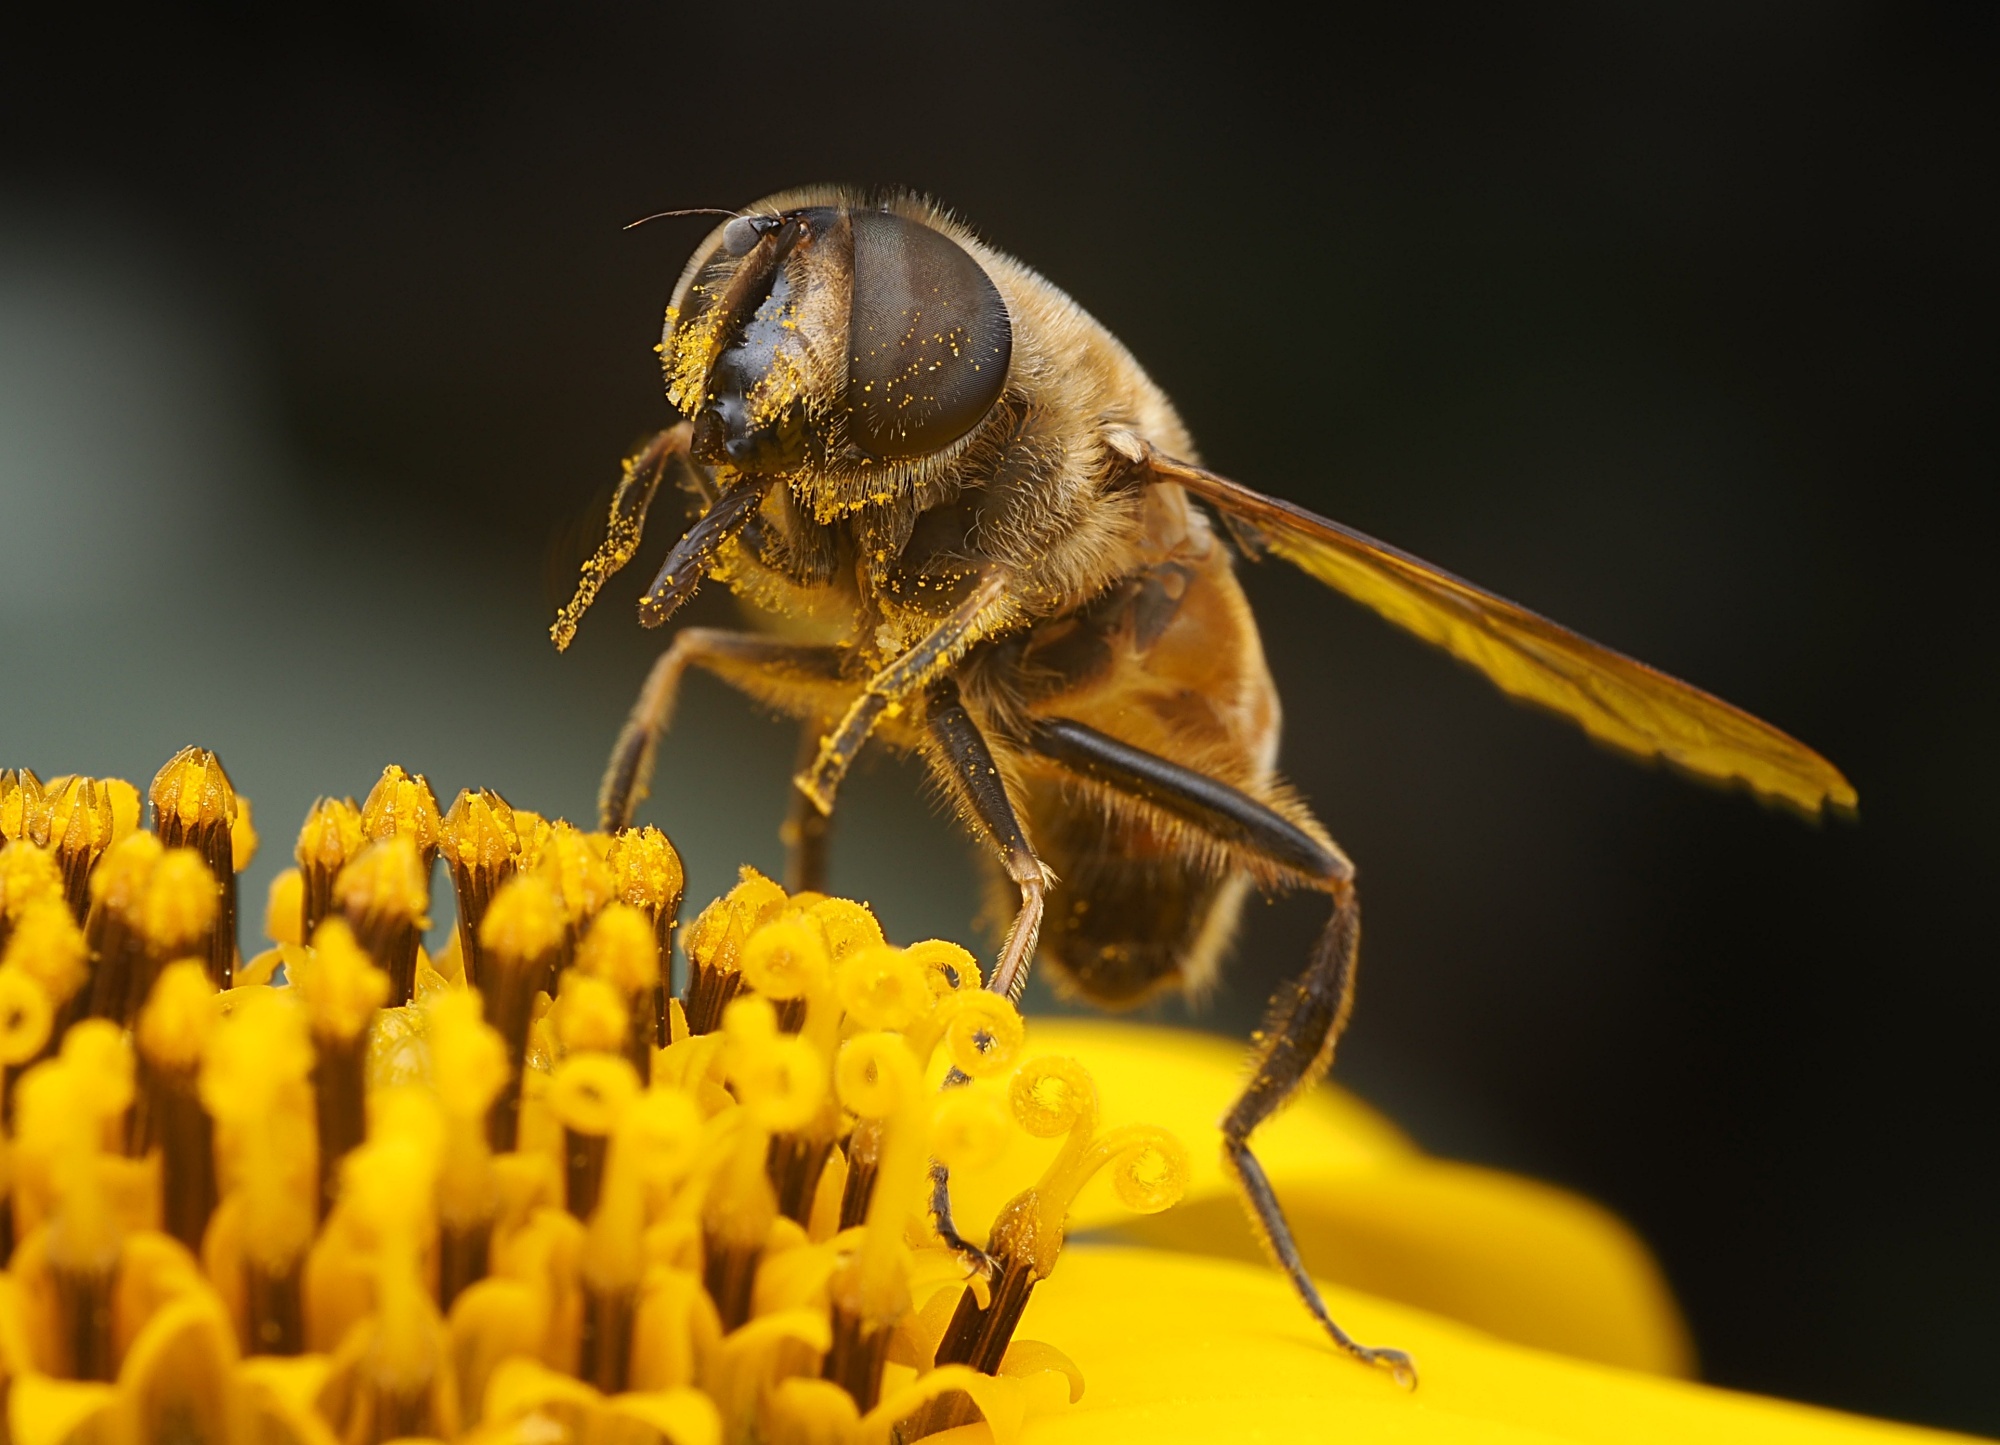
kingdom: Animalia
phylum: Arthropoda
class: Insecta
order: Diptera
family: Syrphidae
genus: Eristalis
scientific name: Eristalis tenax
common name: Drone fly
